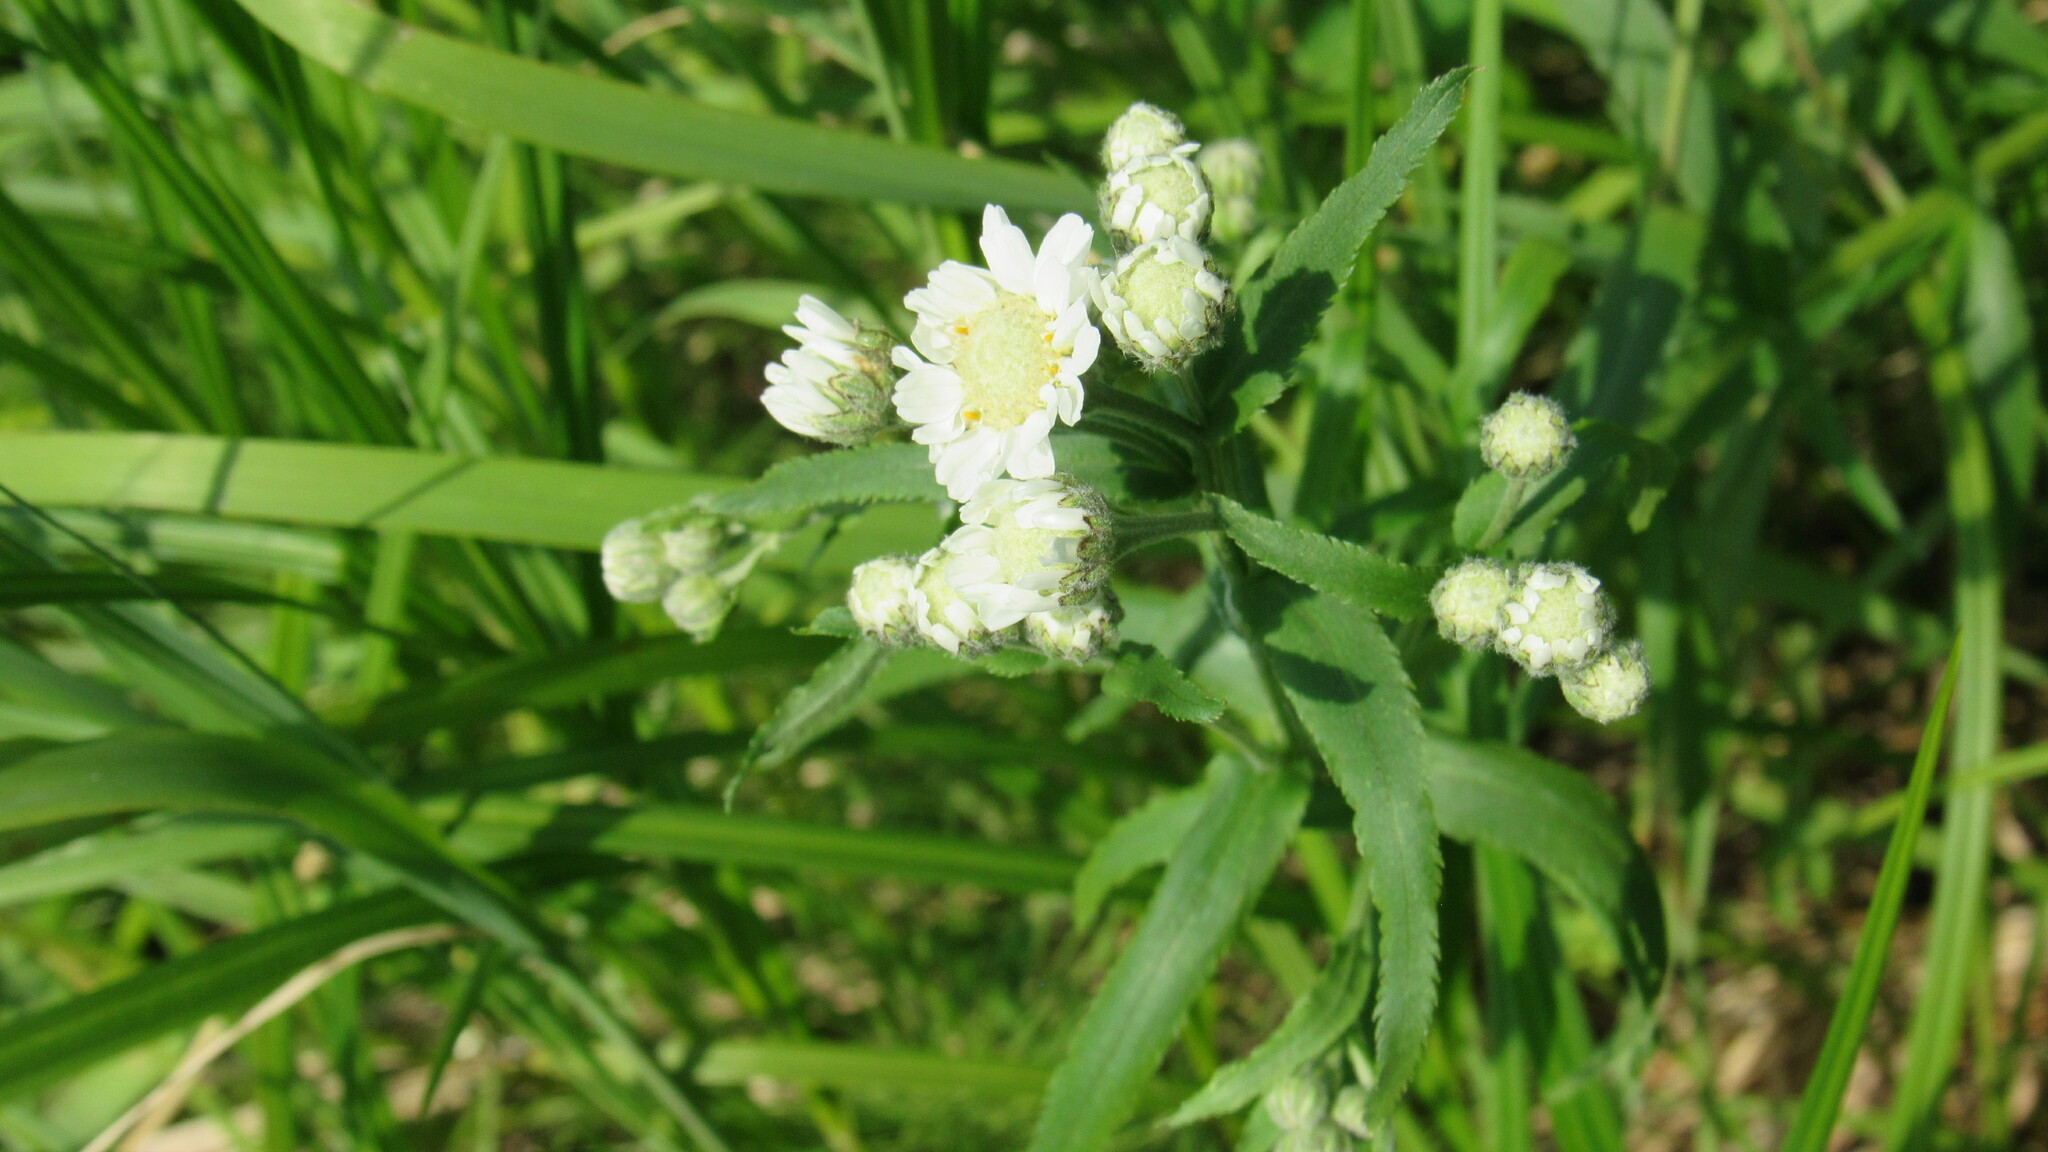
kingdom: Plantae
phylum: Tracheophyta
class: Magnoliopsida
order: Asterales
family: Asteraceae
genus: Achillea
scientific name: Achillea ptarmica
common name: Sneezeweed
